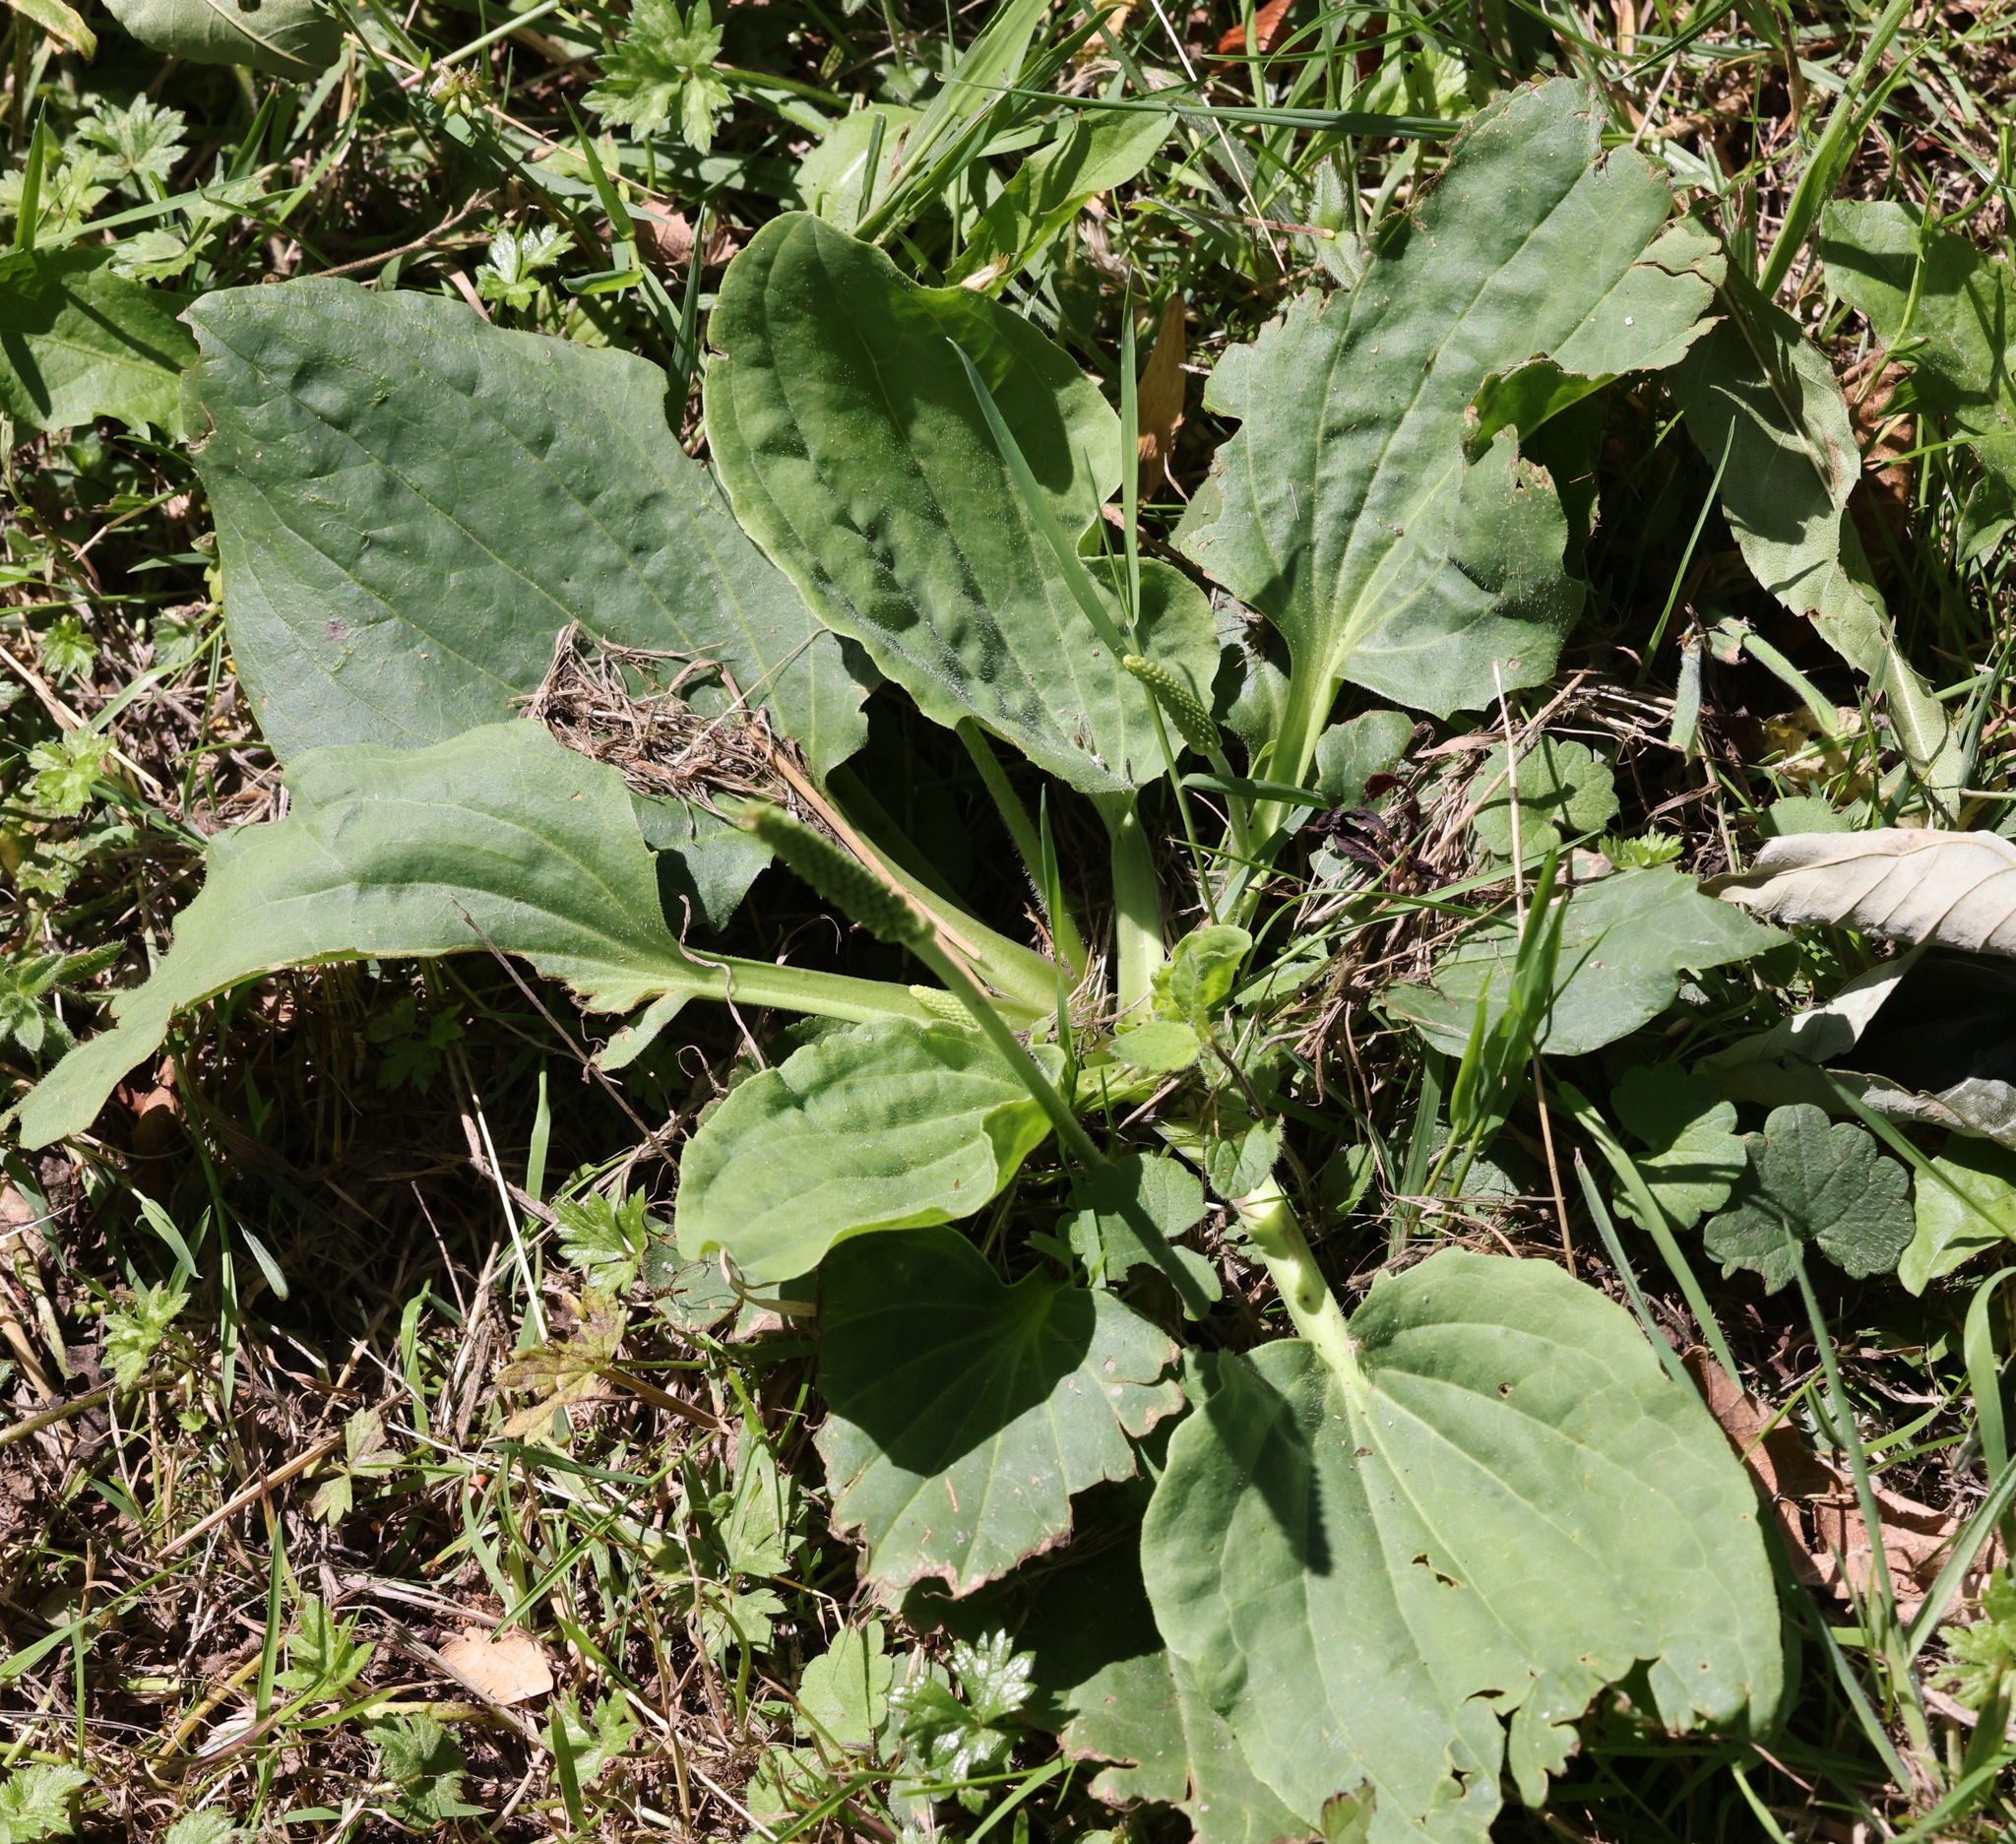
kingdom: Plantae
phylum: Tracheophyta
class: Magnoliopsida
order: Lamiales
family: Plantaginaceae
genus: Plantago
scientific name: Plantago major
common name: Common plantain
